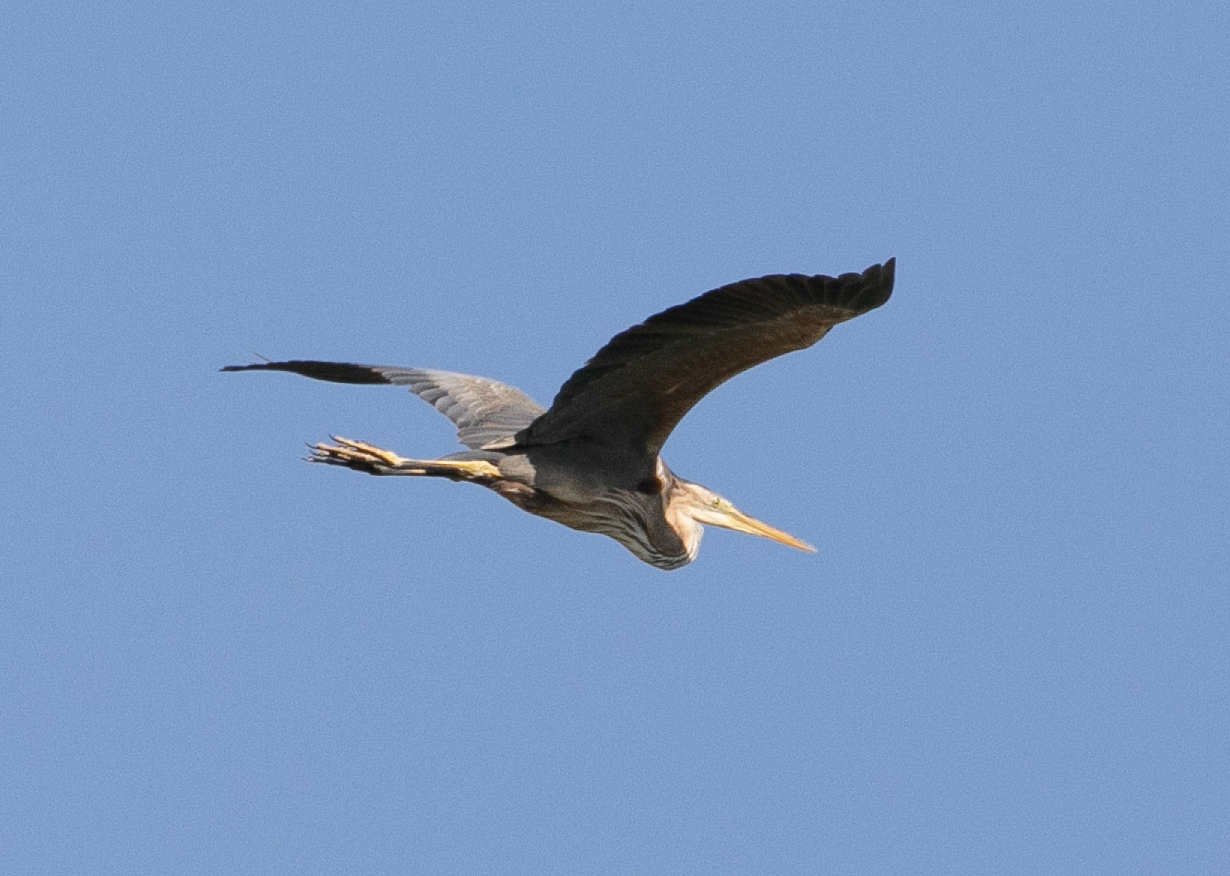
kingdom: Animalia
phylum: Chordata
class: Aves
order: Pelecaniformes
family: Ardeidae
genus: Ardea
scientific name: Ardea purpurea
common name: Purple heron
